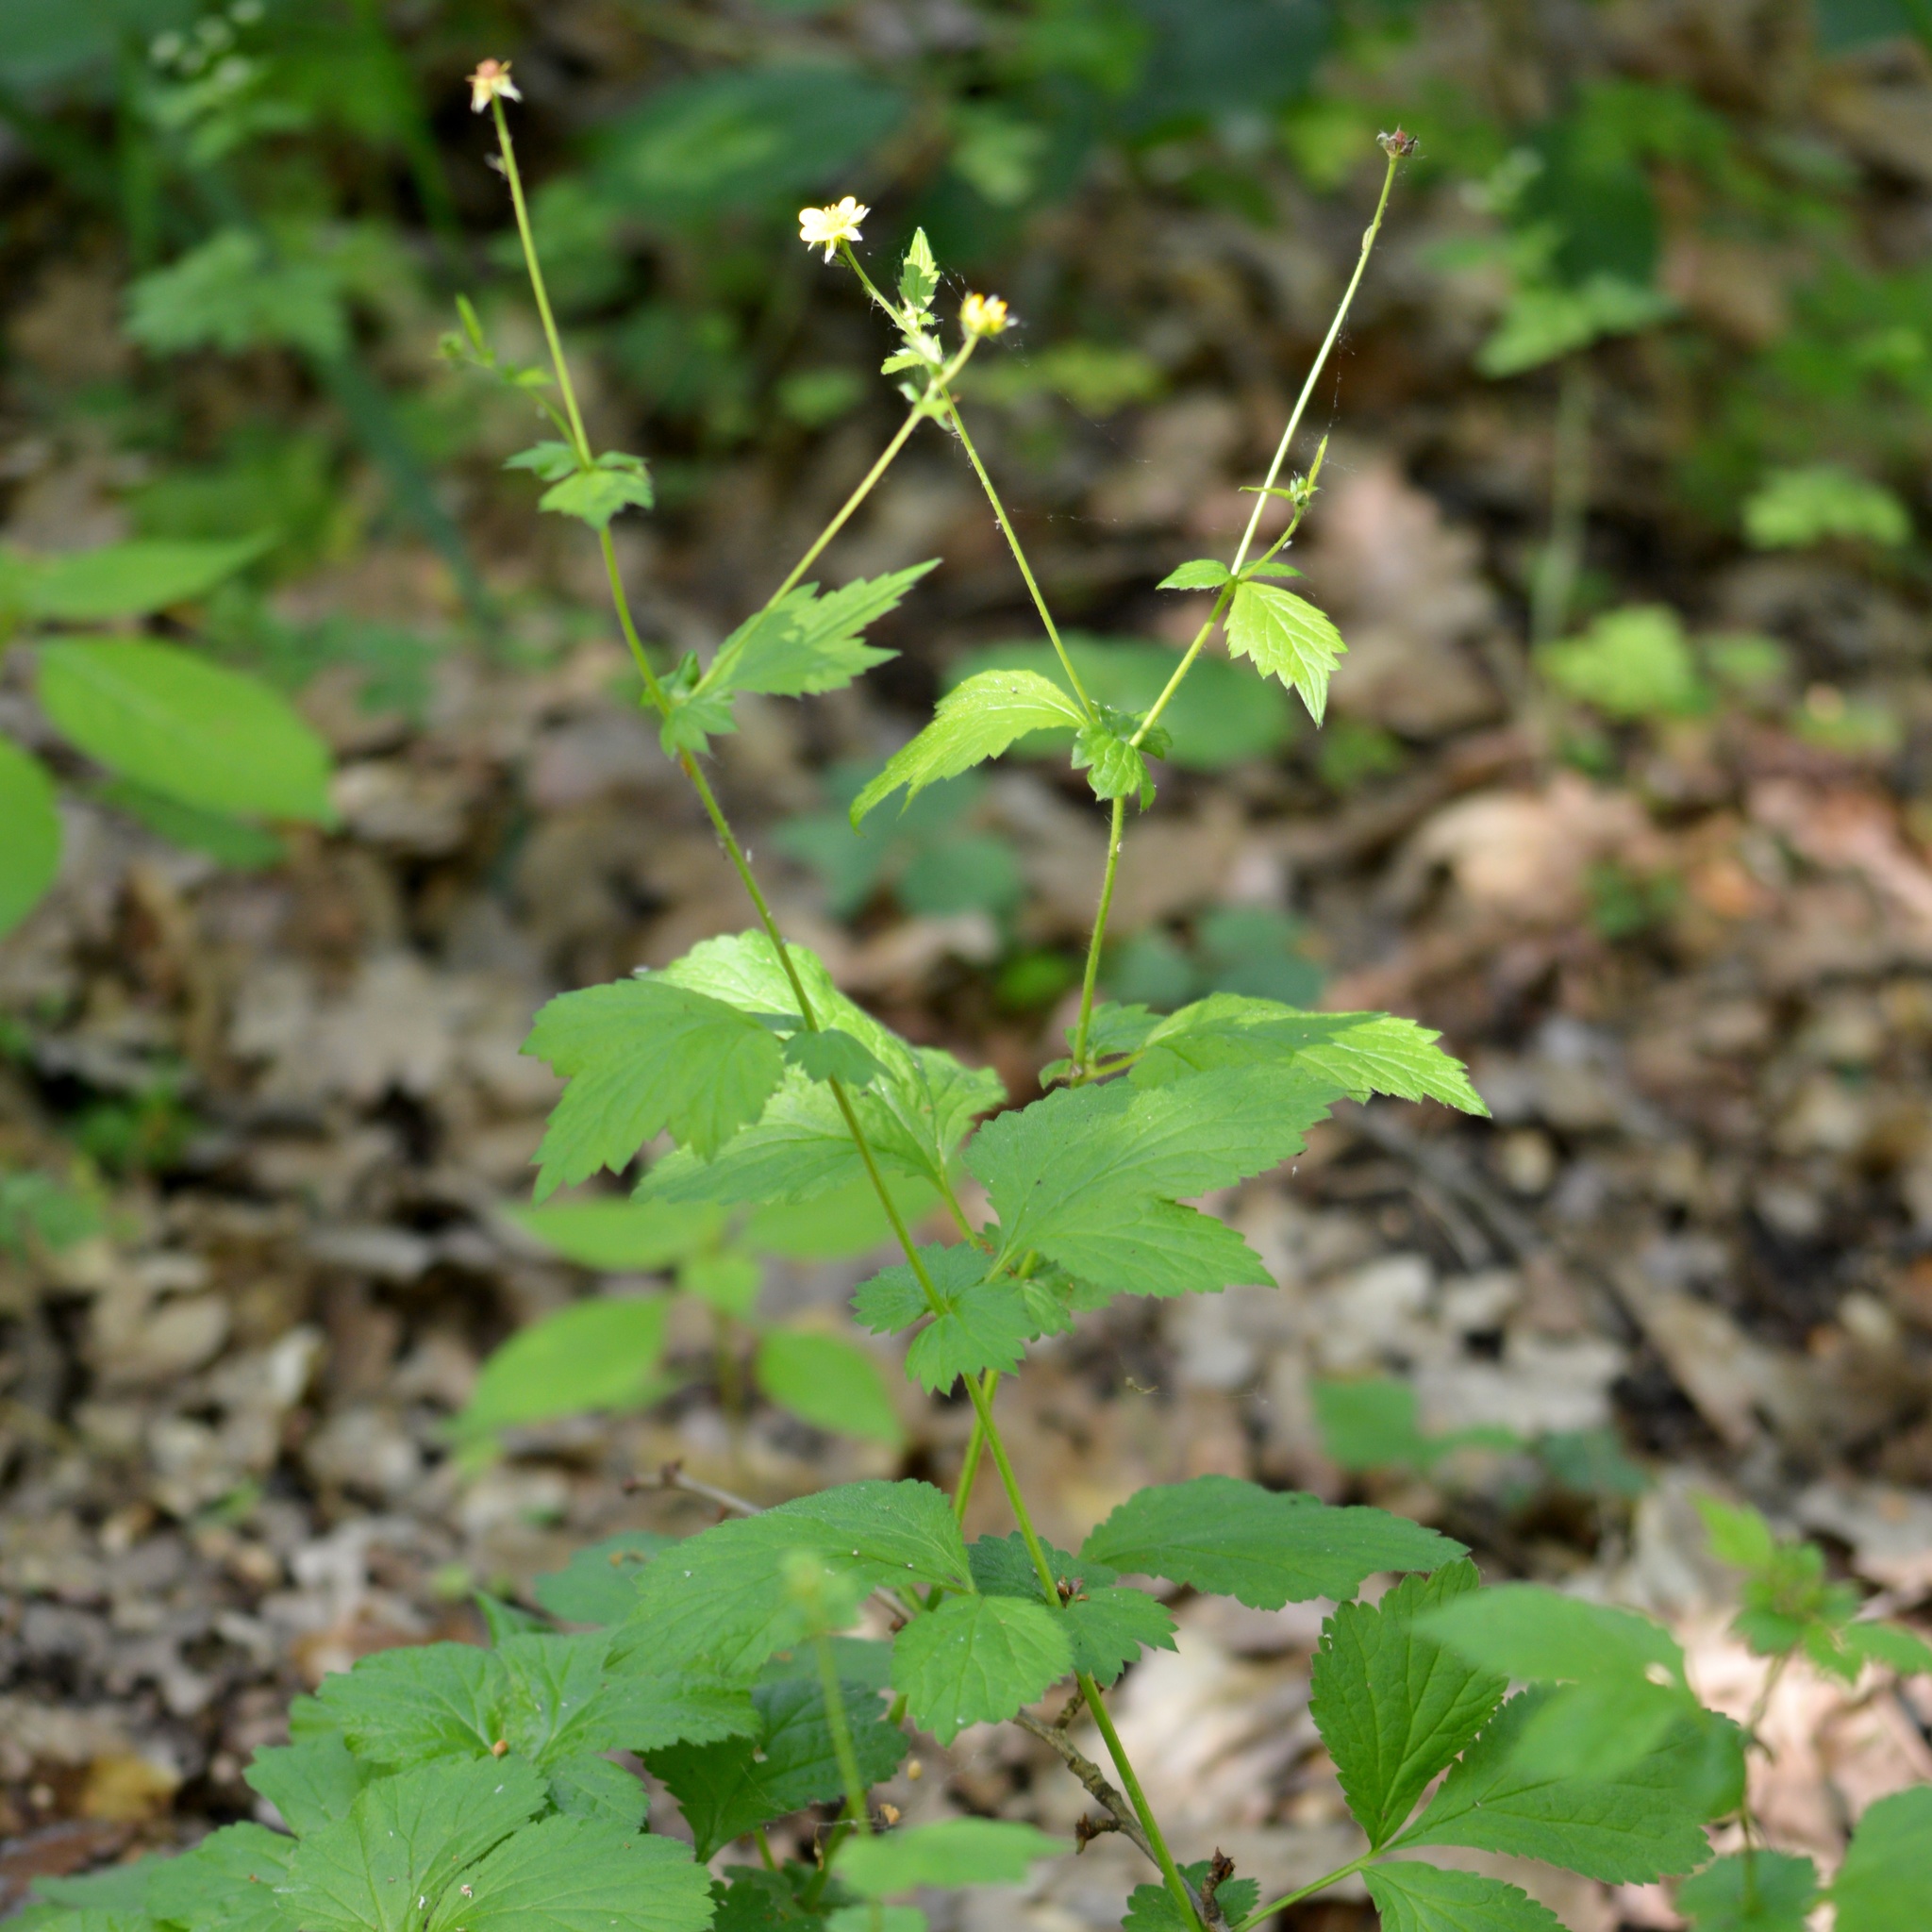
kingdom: Plantae
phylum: Tracheophyta
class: Magnoliopsida
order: Rosales
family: Rosaceae
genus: Geum
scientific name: Geum urbanum
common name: Wood avens
